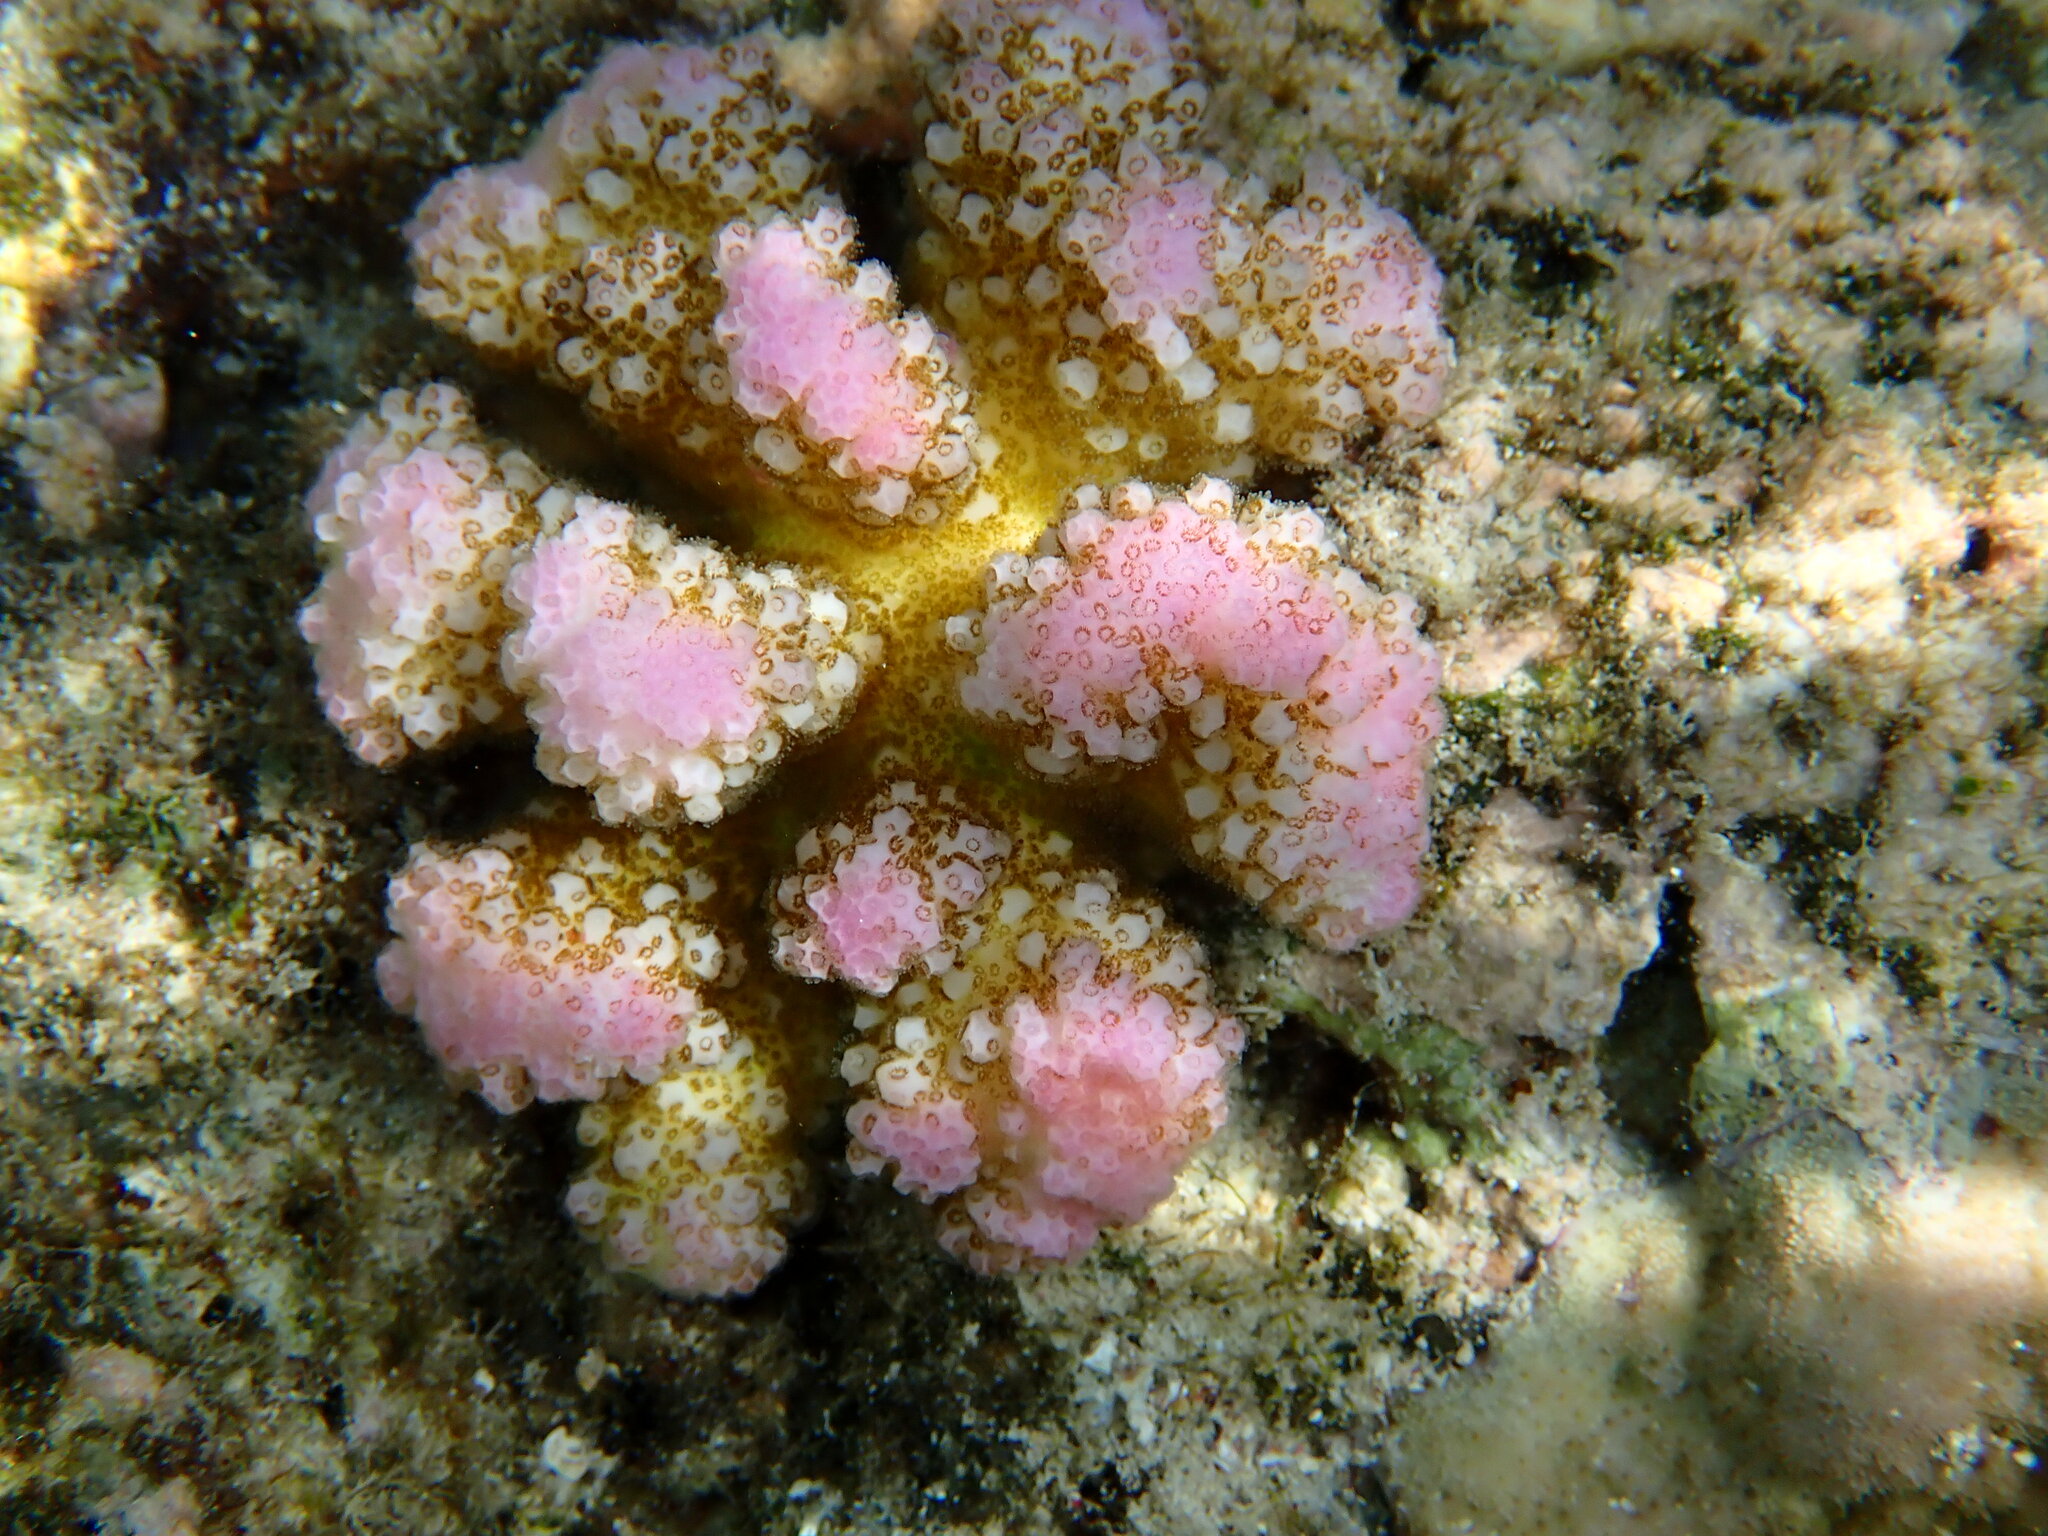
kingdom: Animalia
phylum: Cnidaria
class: Anthozoa
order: Scleractinia
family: Pocilloporidae
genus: Pocillopora
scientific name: Pocillopora verrucosa
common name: Cauliflower coral
